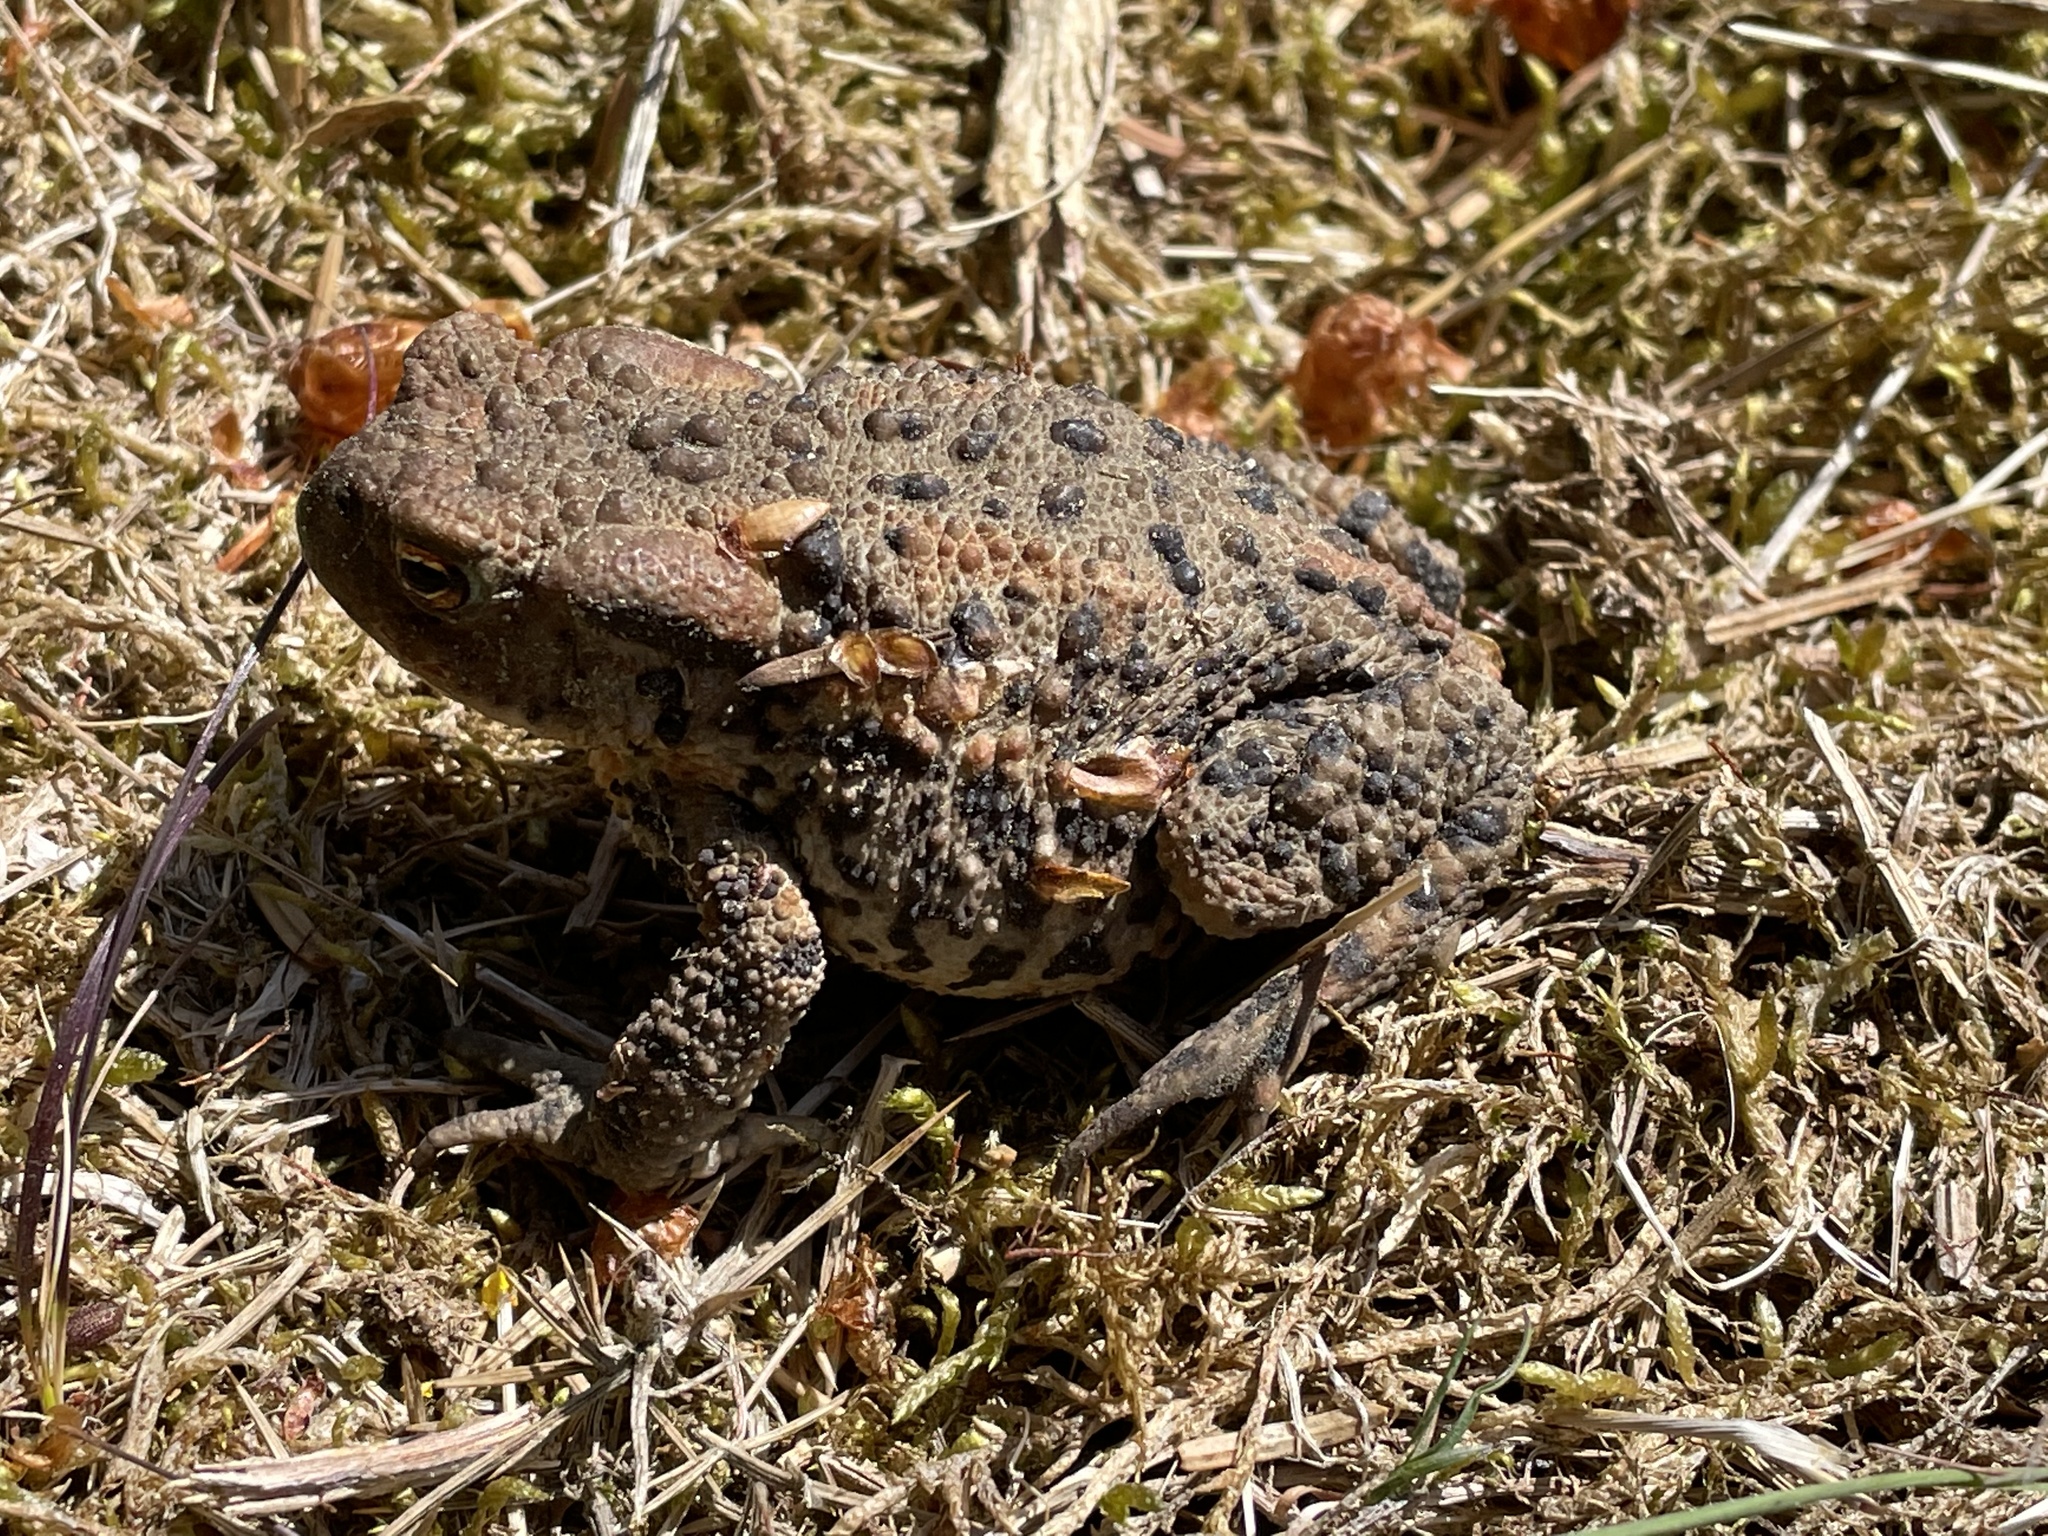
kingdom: Animalia
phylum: Chordata
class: Amphibia
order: Anura
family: Bufonidae
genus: Bufo
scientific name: Bufo bufo
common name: Common toad
